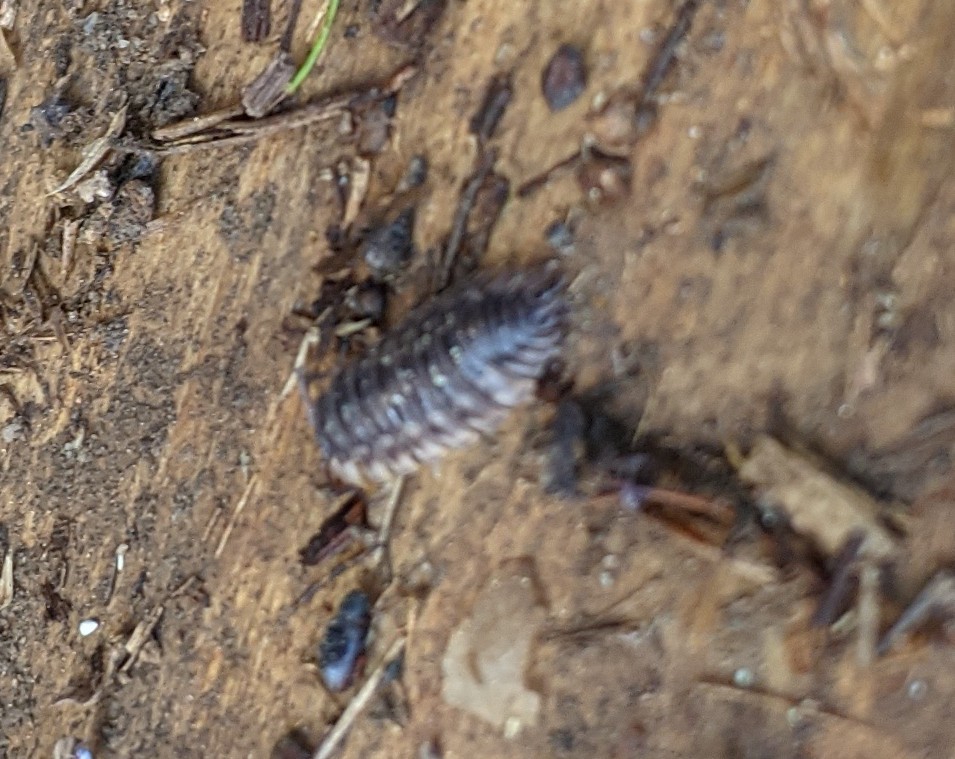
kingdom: Animalia
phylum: Arthropoda
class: Malacostraca
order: Isopoda
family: Oniscidae
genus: Oniscus
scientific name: Oniscus asellus
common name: Common shiny woodlouse
